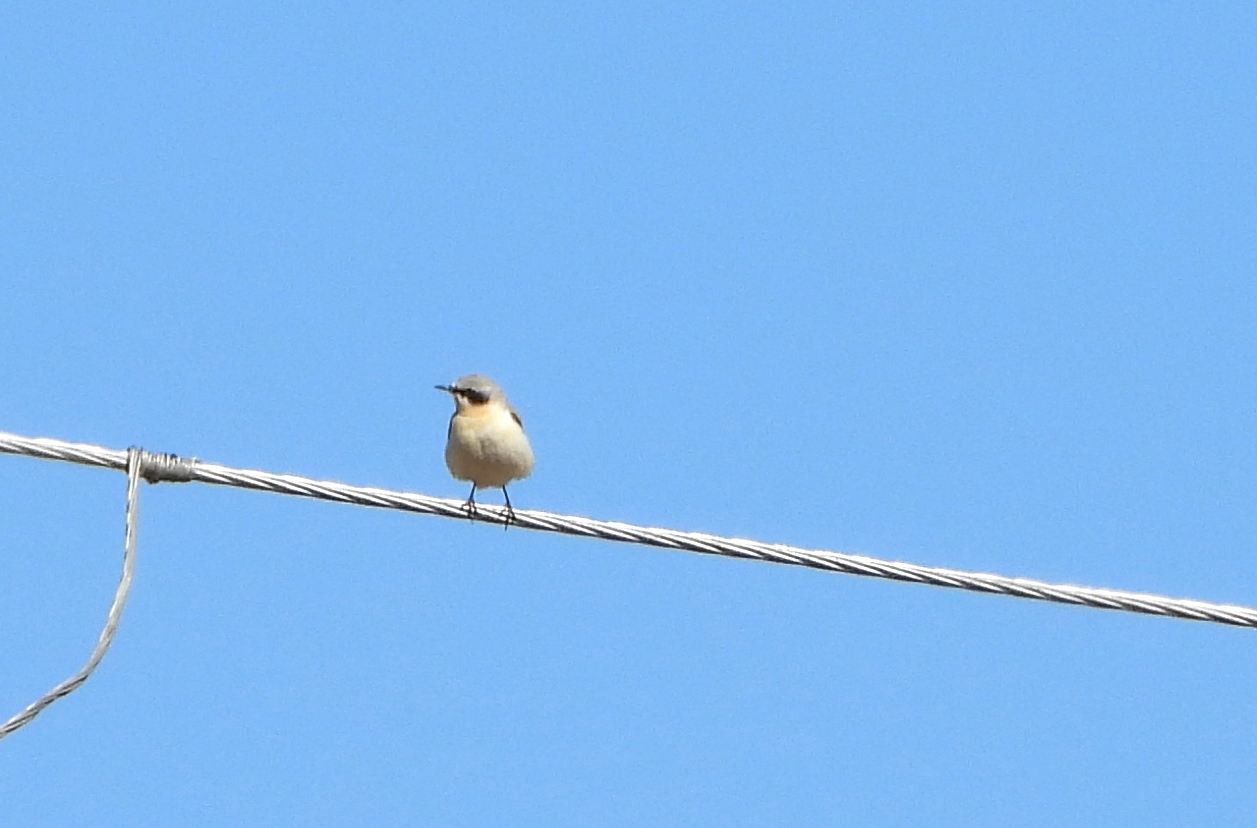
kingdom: Animalia
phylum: Chordata
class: Aves
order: Passeriformes
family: Muscicapidae
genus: Oenanthe
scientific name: Oenanthe oenanthe
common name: Northern wheatear
